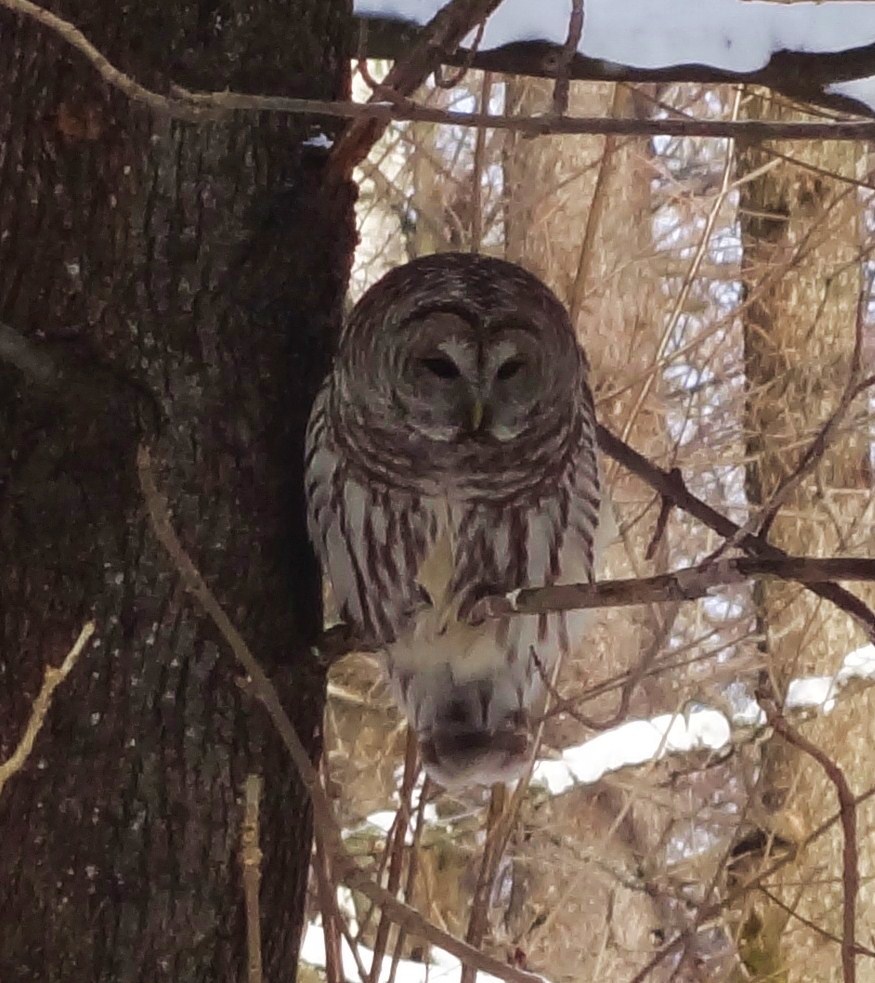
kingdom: Animalia
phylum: Chordata
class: Aves
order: Strigiformes
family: Strigidae
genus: Strix
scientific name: Strix varia
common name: Barred owl
